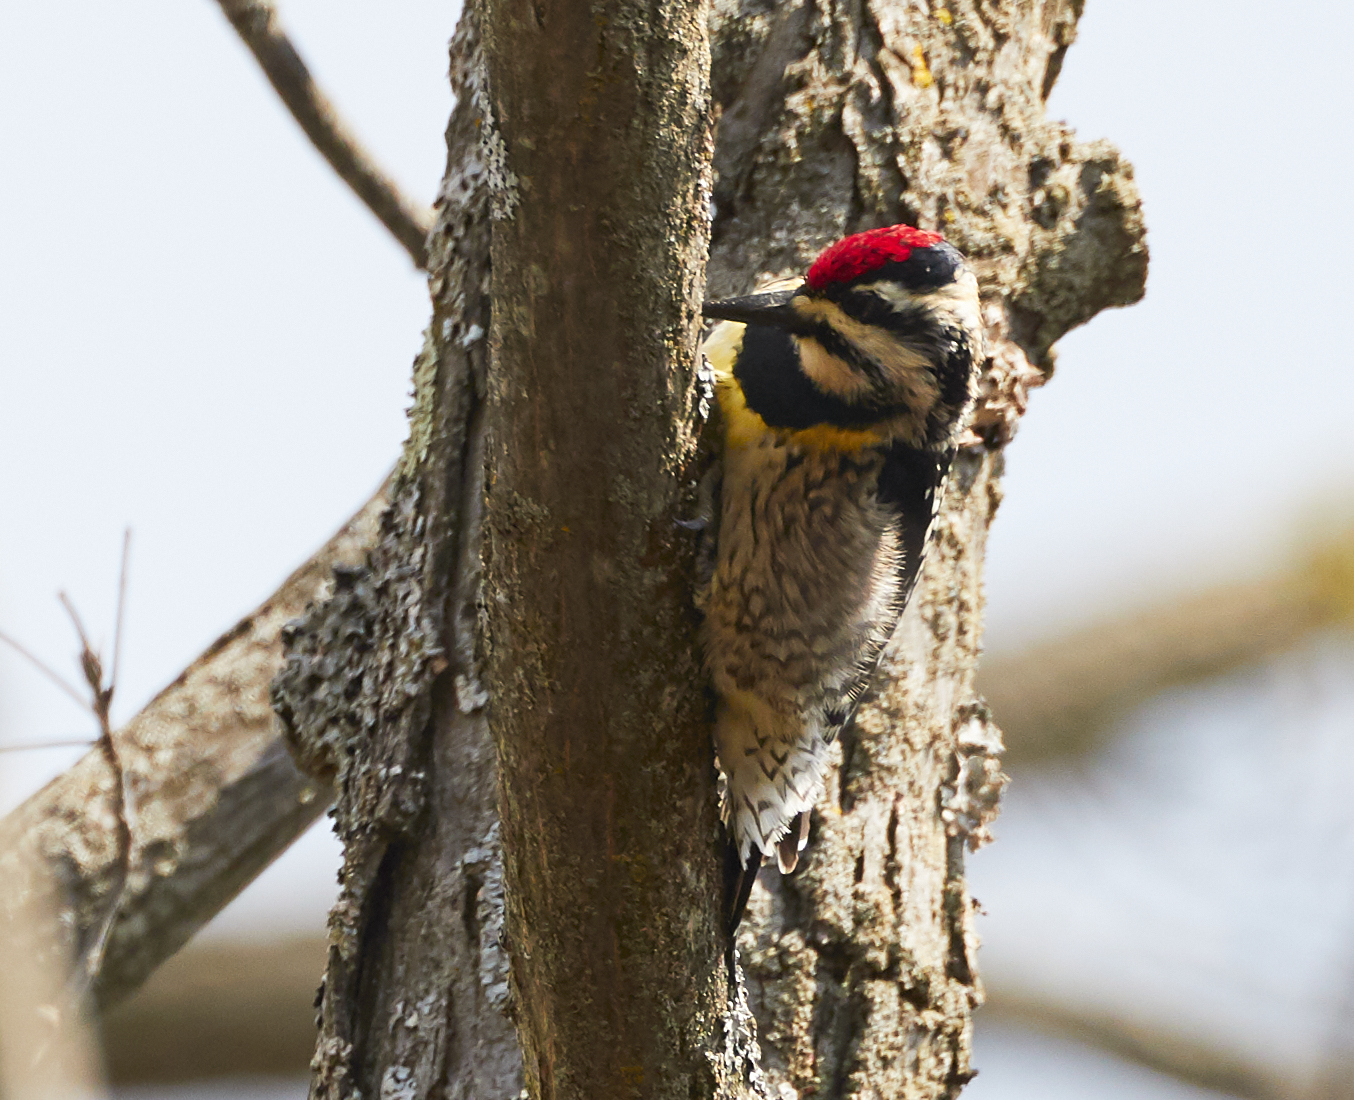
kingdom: Animalia
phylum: Chordata
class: Aves
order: Piciformes
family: Picidae
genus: Sphyrapicus
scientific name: Sphyrapicus varius
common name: Yellow-bellied sapsucker
